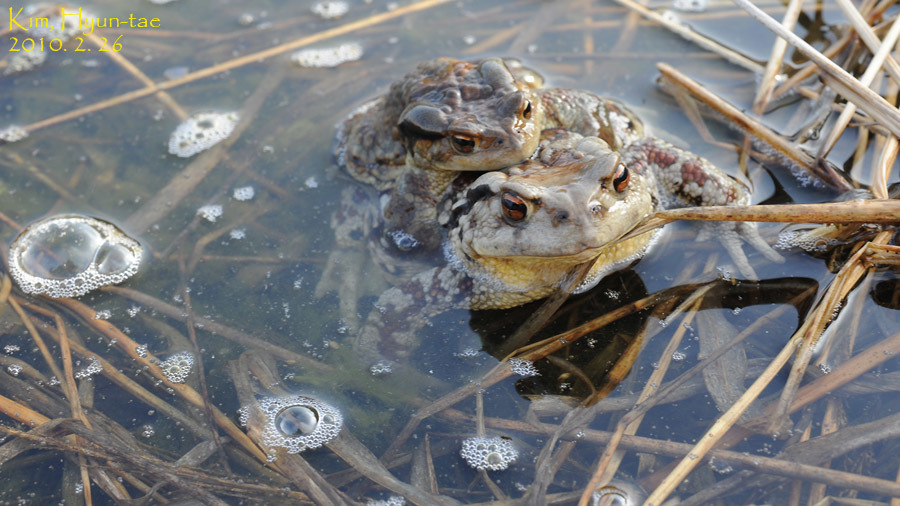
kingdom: Animalia
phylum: Chordata
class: Amphibia
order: Anura
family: Bufonidae
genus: Bufo
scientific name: Bufo gargarizans
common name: Asiatic toad
